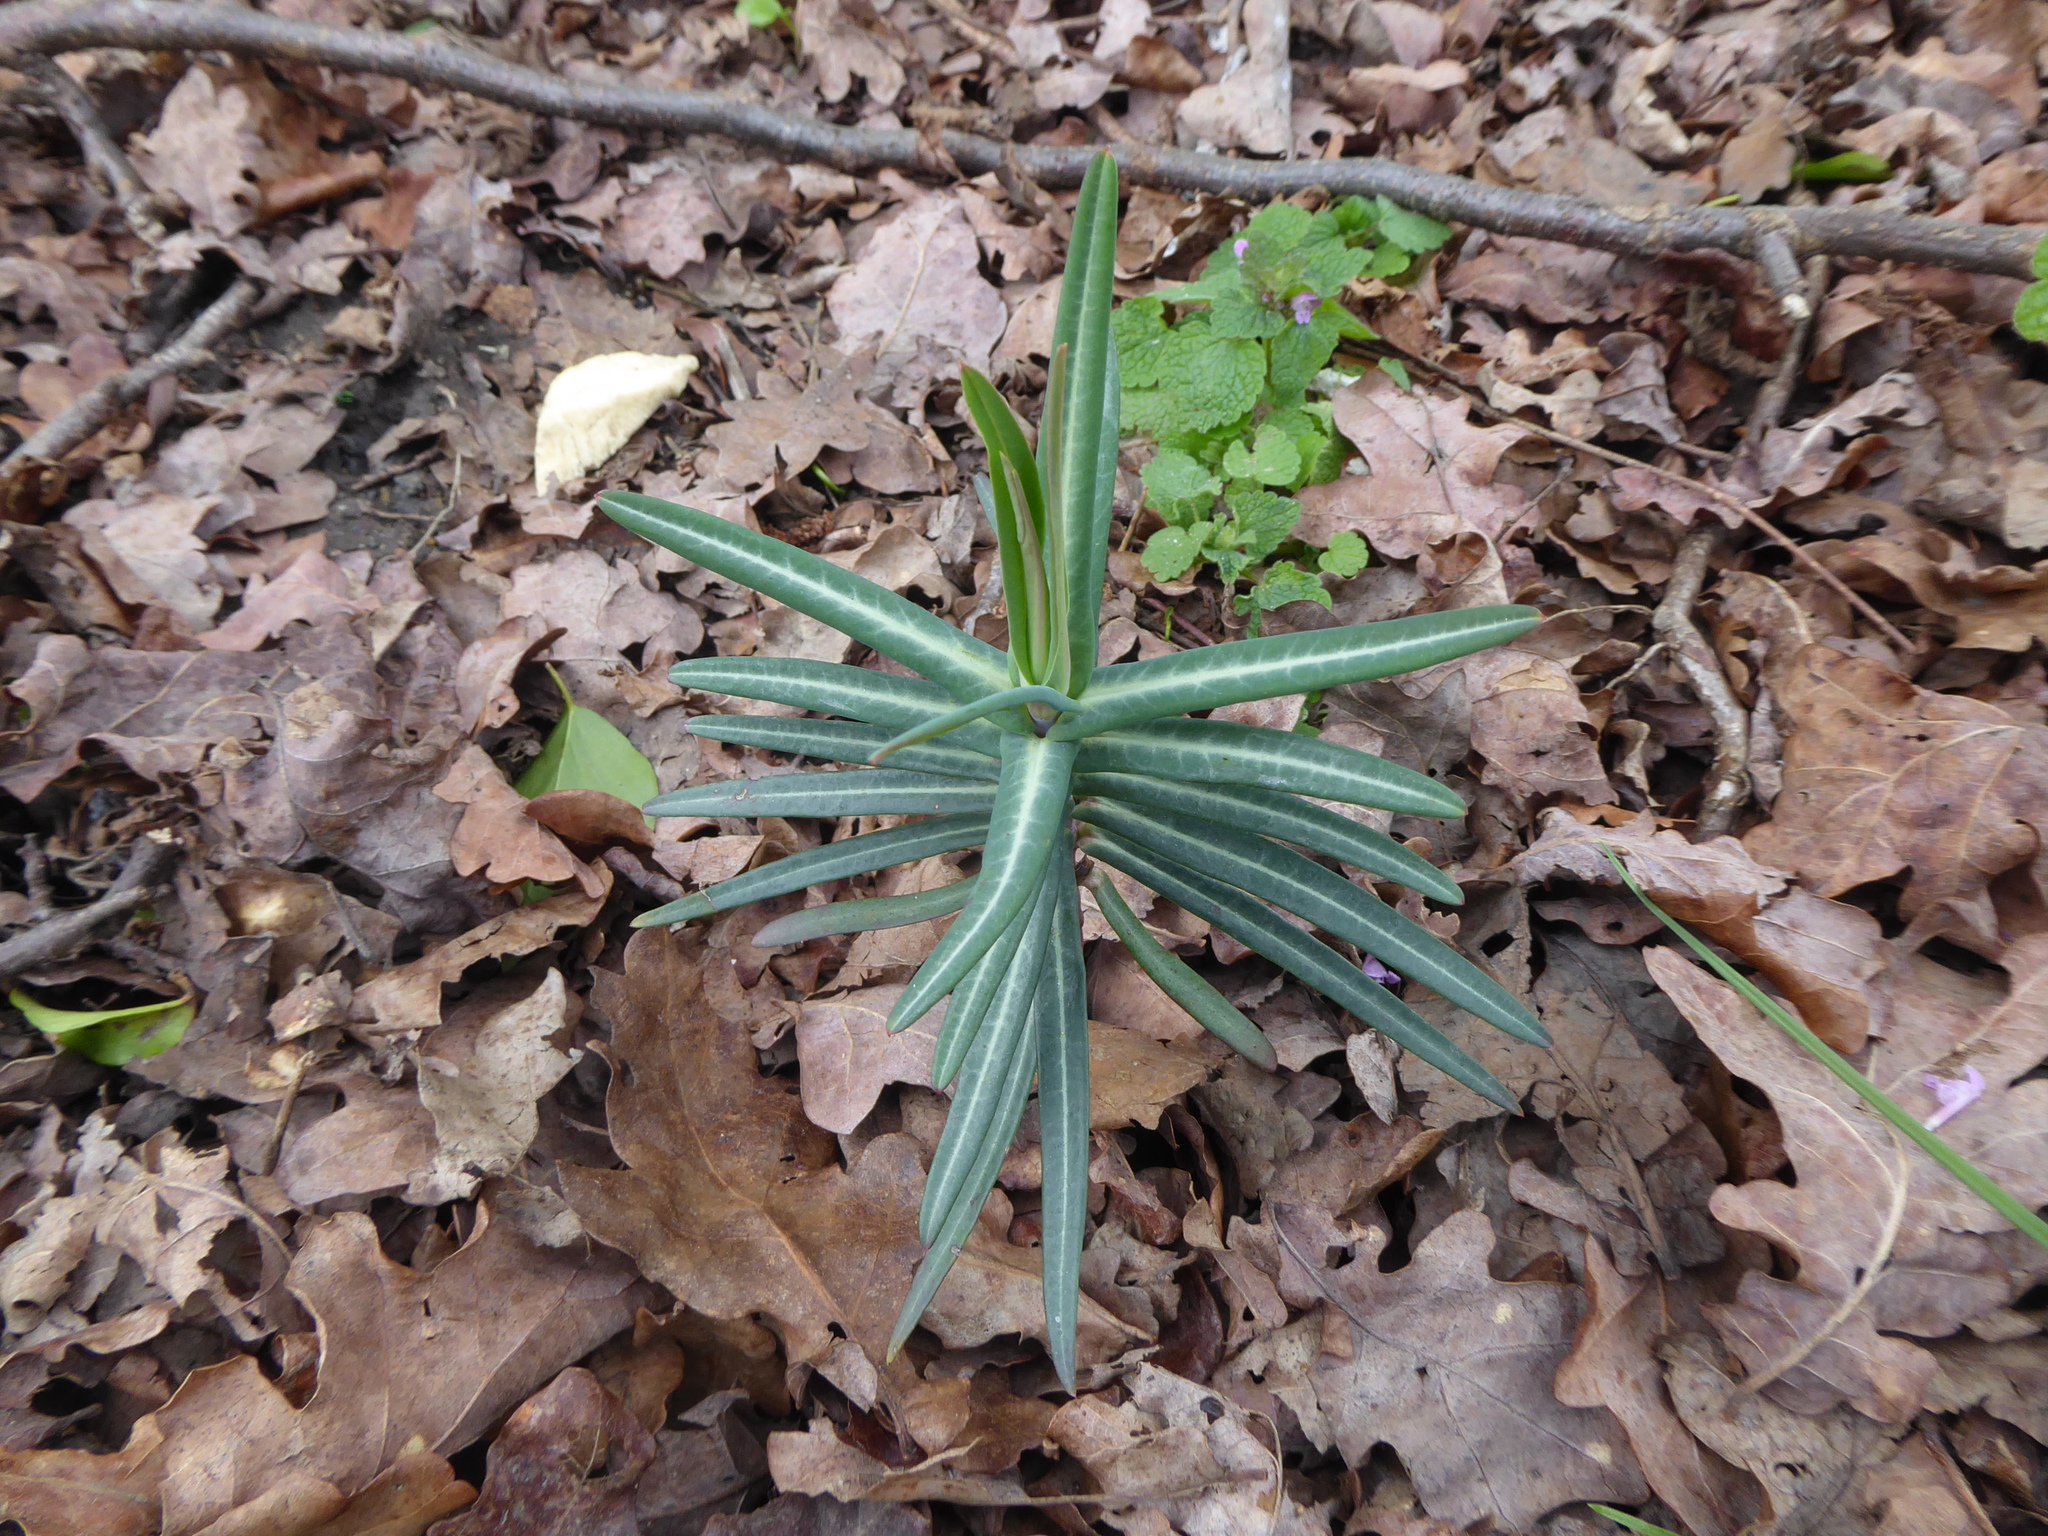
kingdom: Plantae
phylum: Tracheophyta
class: Magnoliopsida
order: Malpighiales
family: Euphorbiaceae
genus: Euphorbia
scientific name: Euphorbia lathyris
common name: Caper spurge
